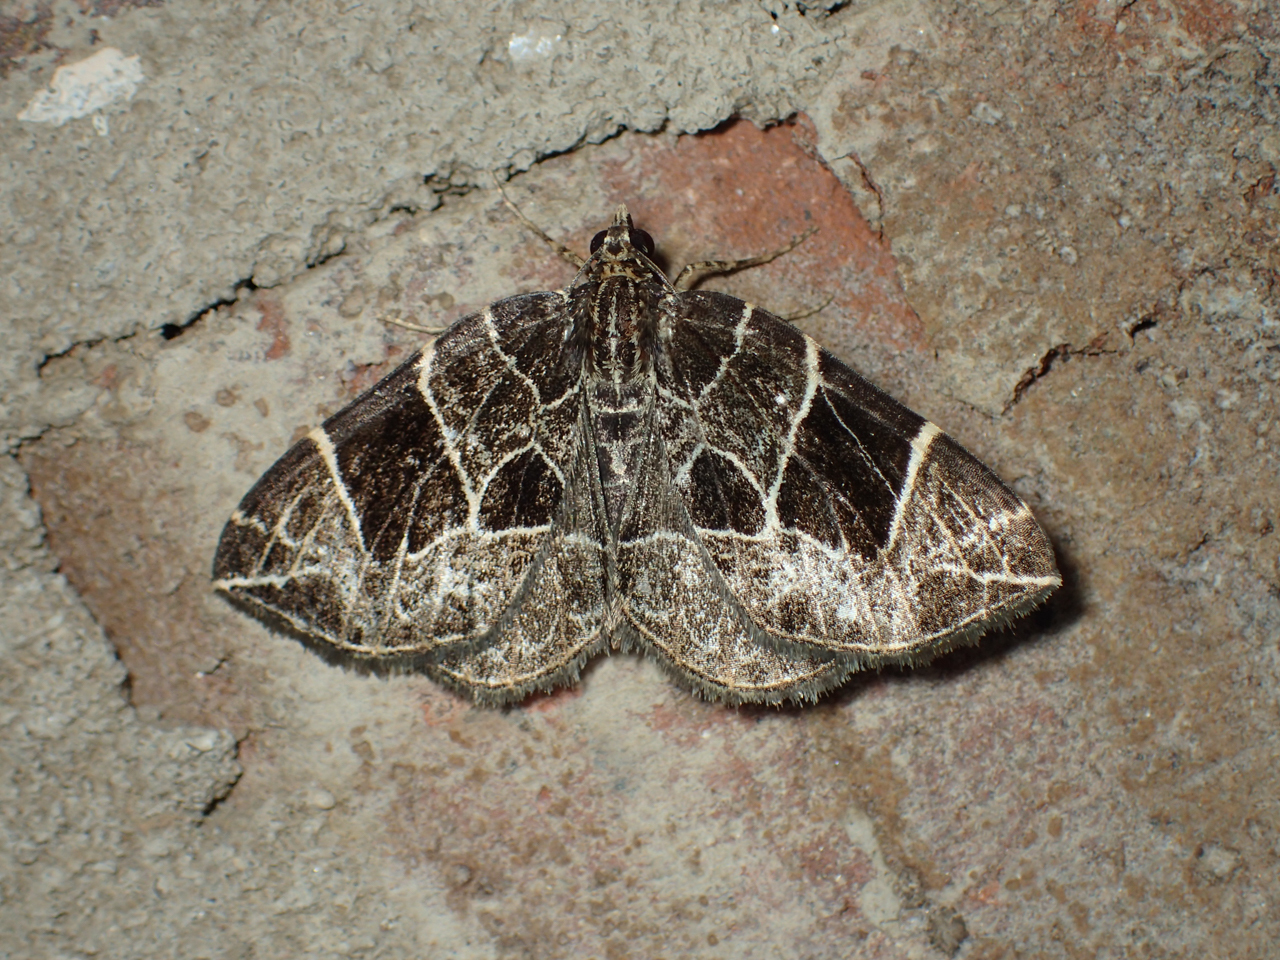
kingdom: Animalia
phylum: Arthropoda
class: Insecta
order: Lepidoptera
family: Geometridae
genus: Ecliptopera
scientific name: Ecliptopera atricolorata
